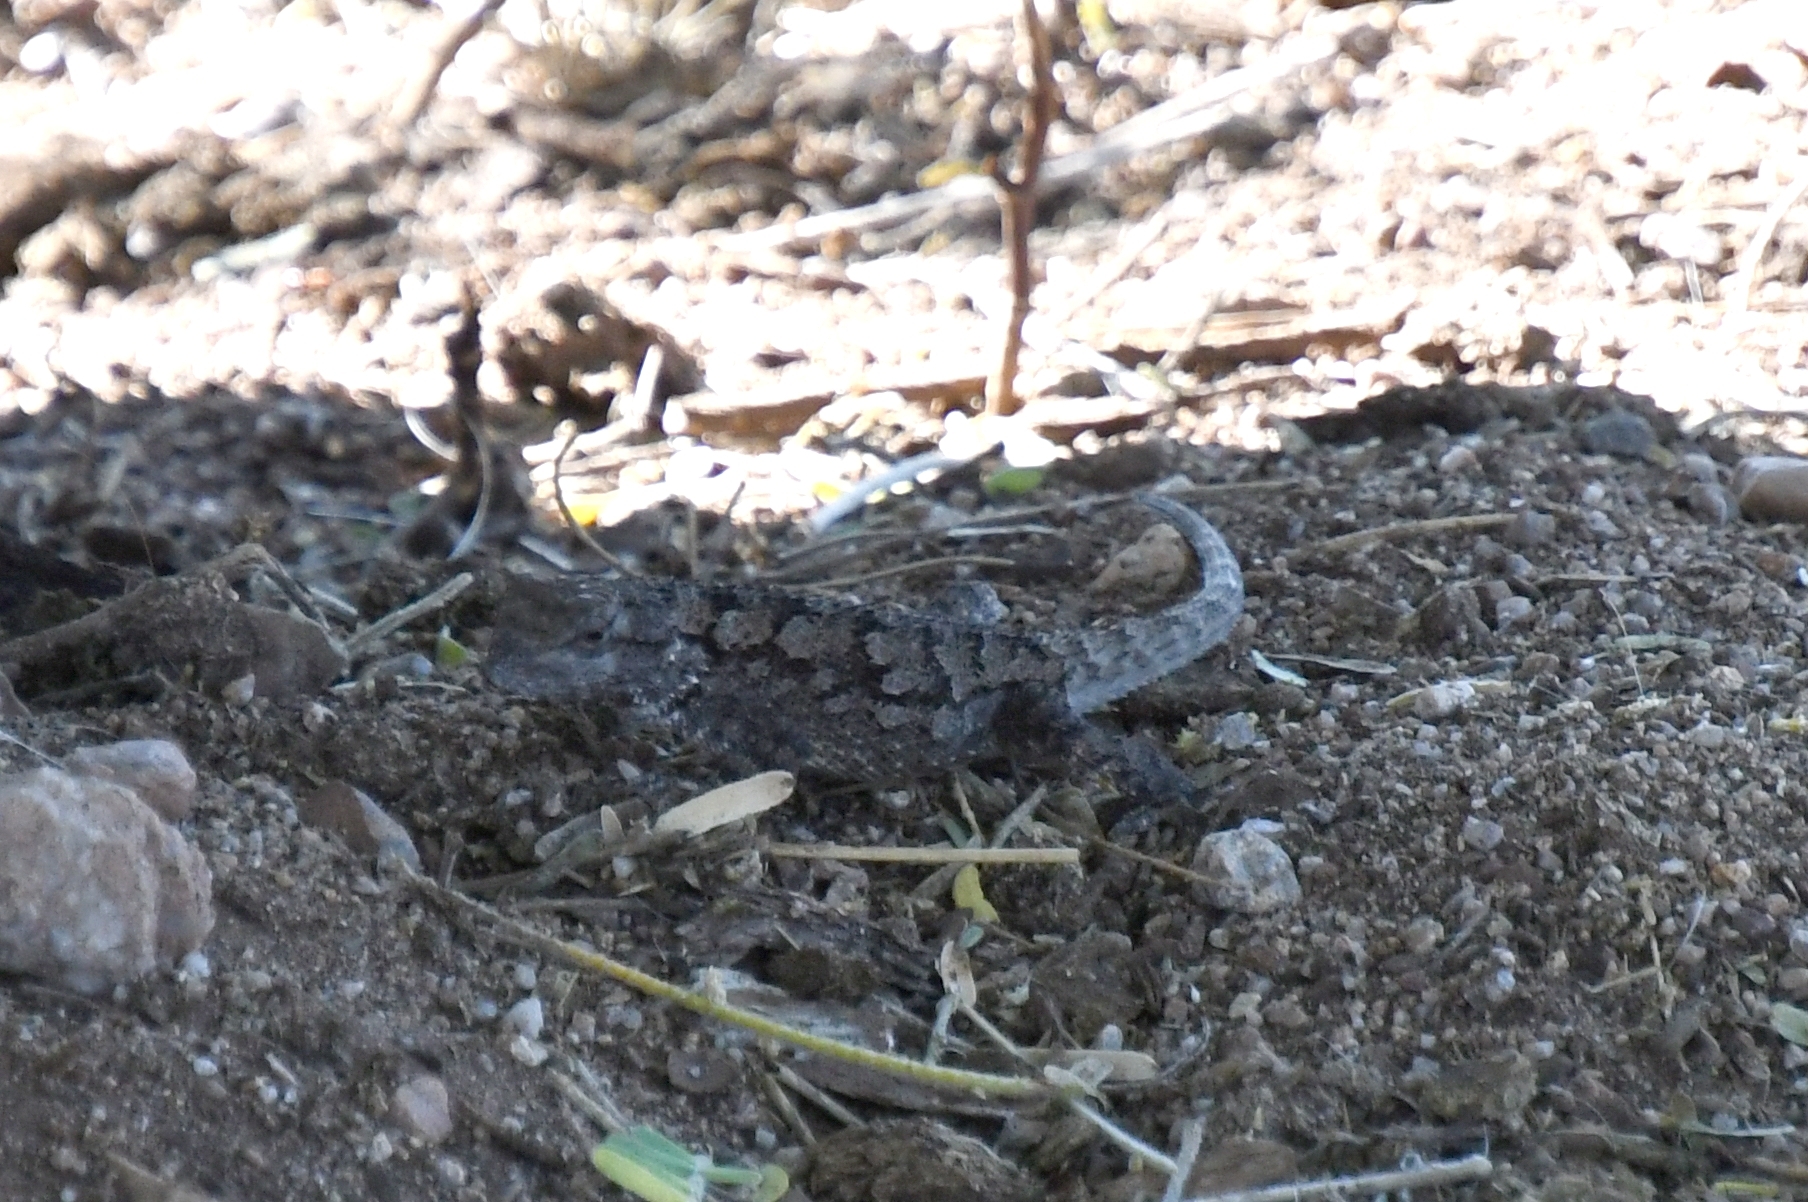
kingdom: Animalia
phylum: Chordata
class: Squamata
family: Phrynosomatidae
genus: Sceloporus
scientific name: Sceloporus clarkii
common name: Clark's spiny lizard
